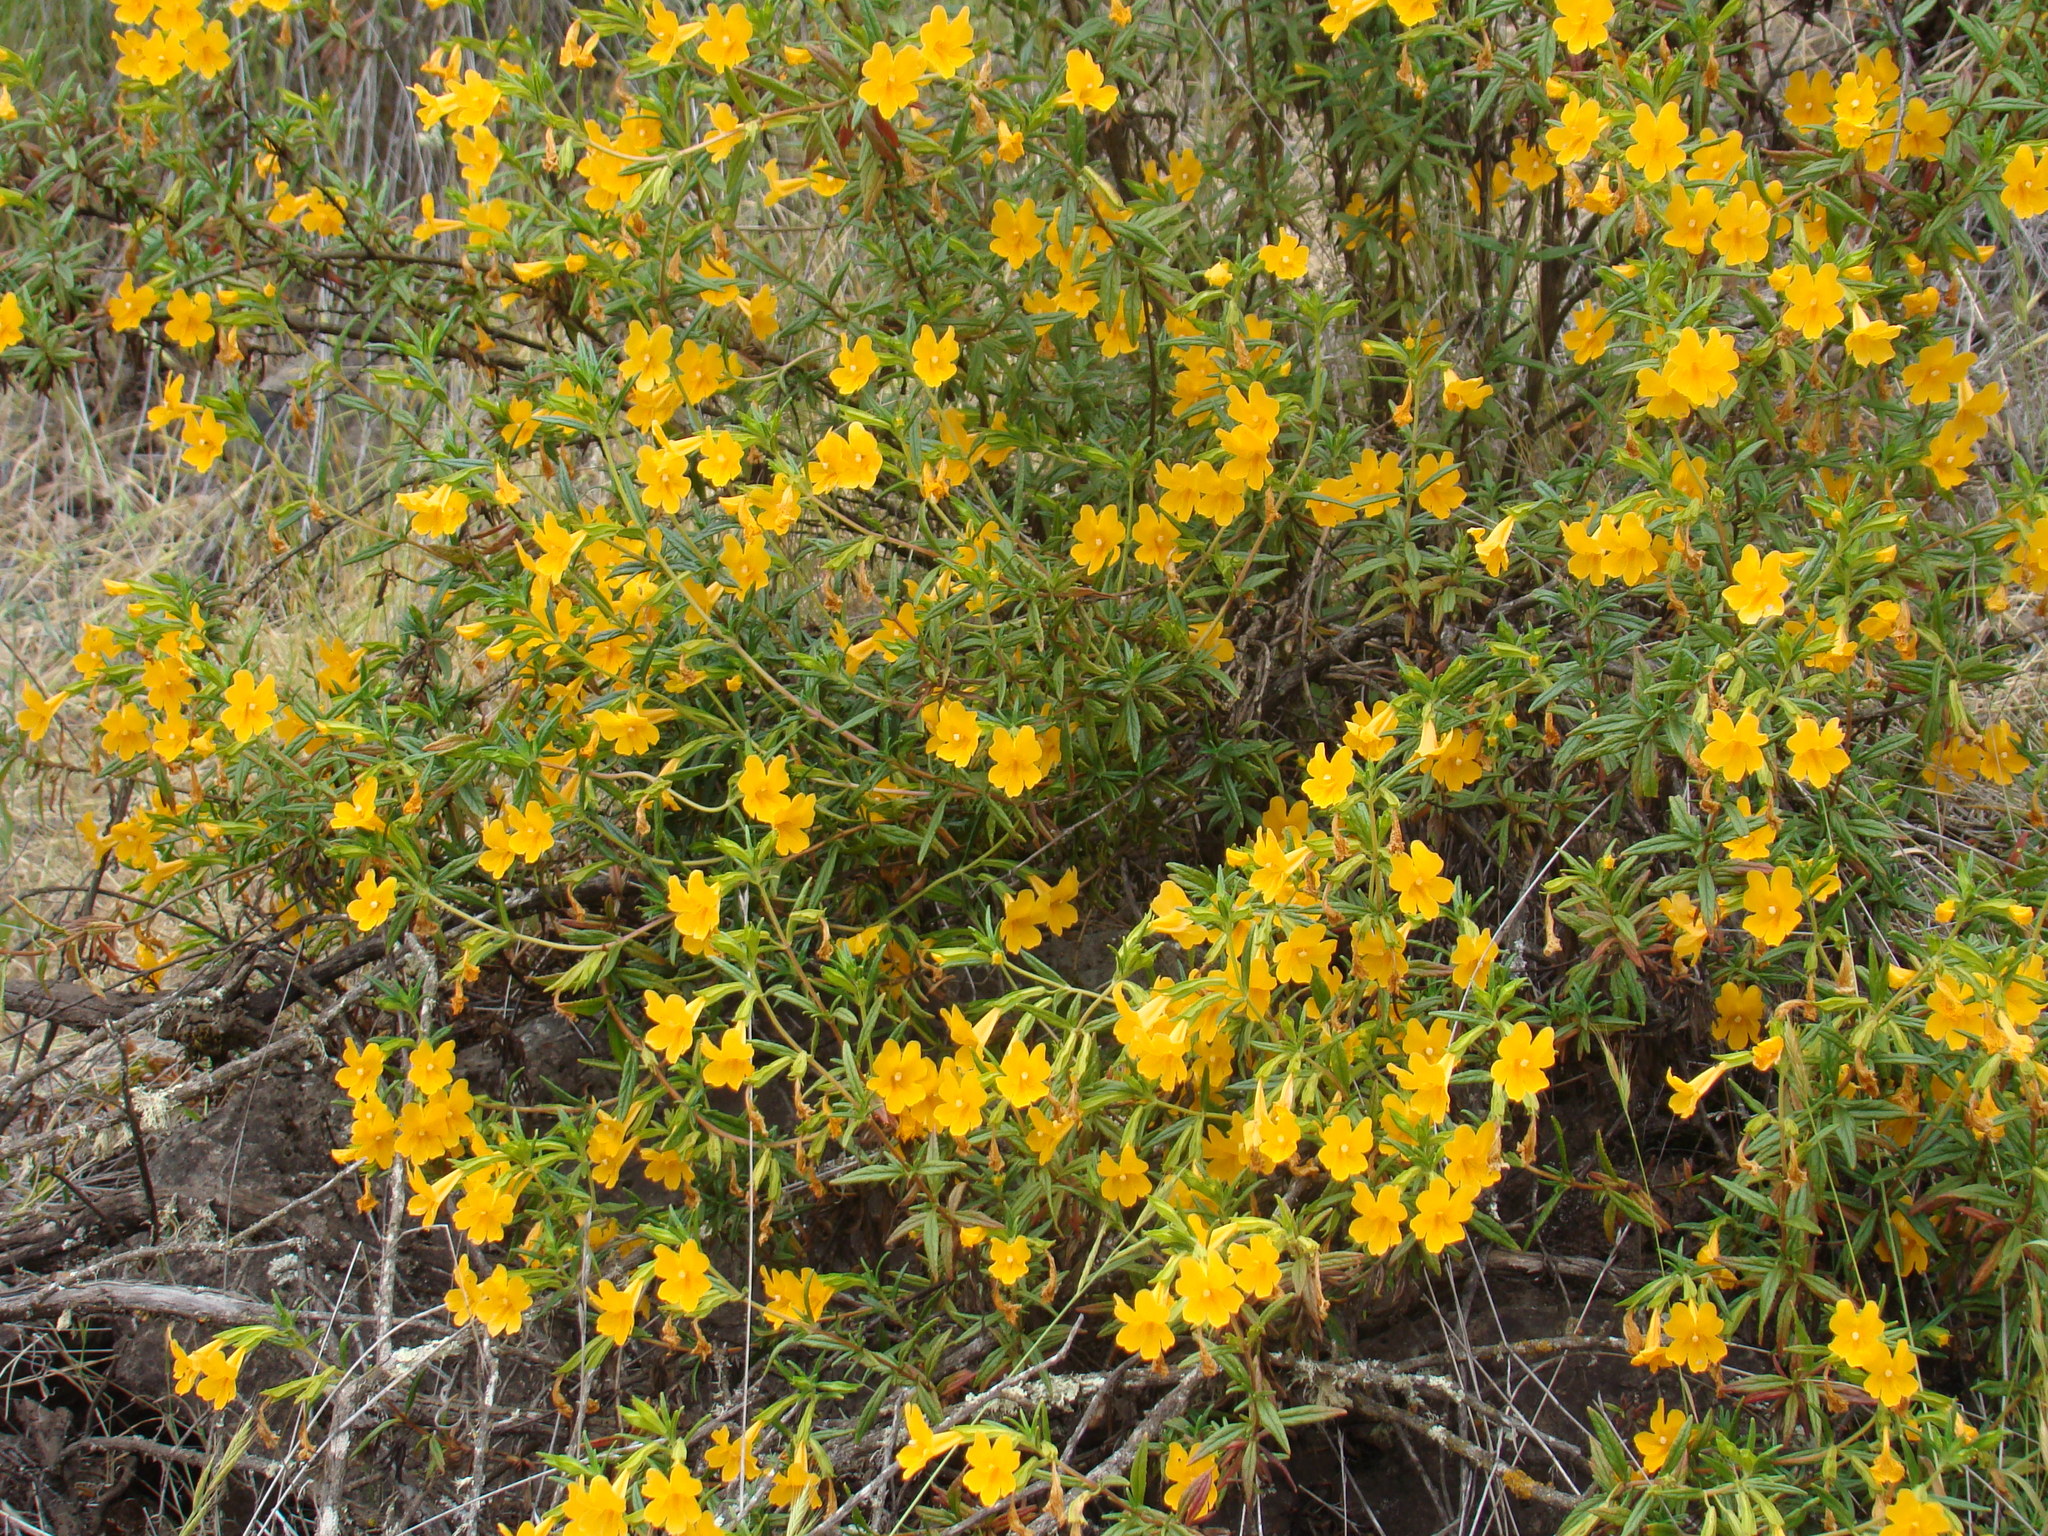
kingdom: Plantae
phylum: Tracheophyta
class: Magnoliopsida
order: Lamiales
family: Phrymaceae
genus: Diplacus
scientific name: Diplacus aurantiacus
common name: Bush monkey-flower
